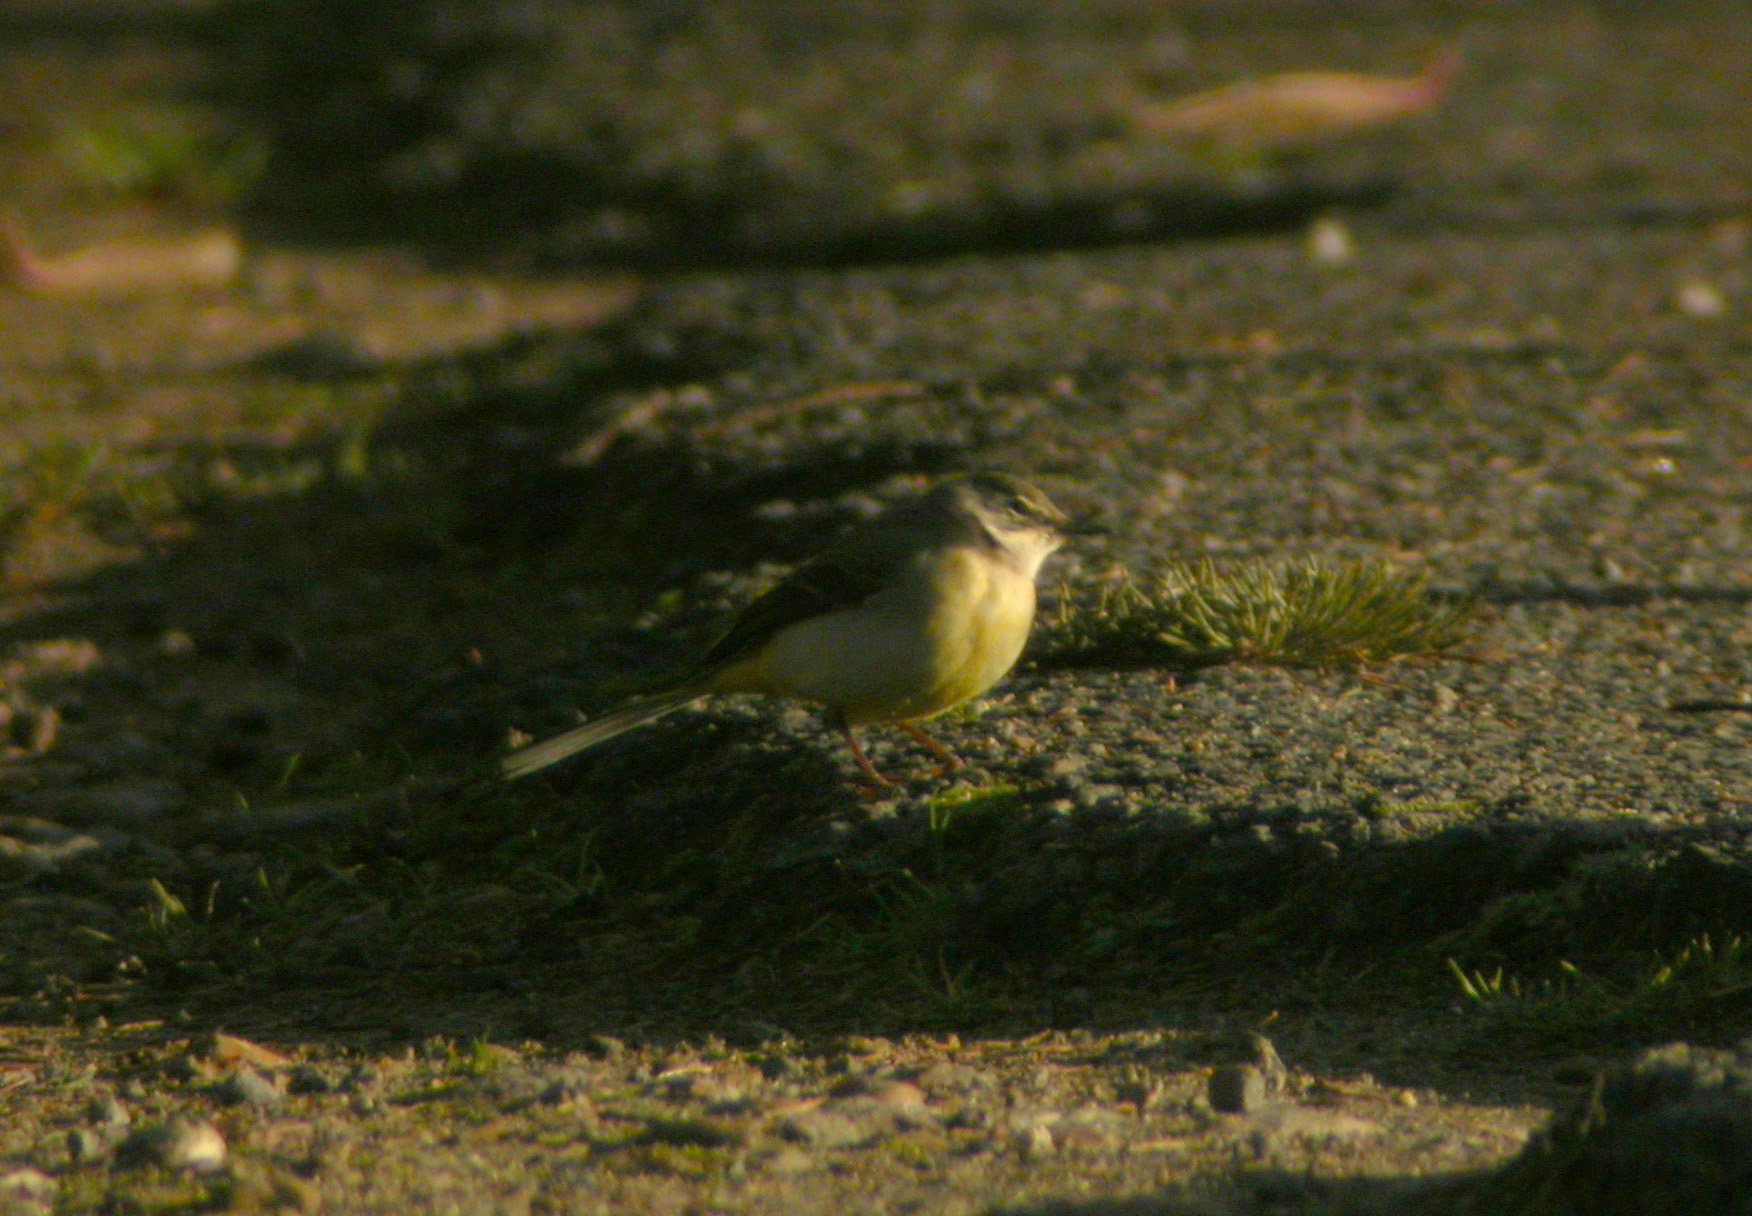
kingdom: Animalia
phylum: Chordata
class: Aves
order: Passeriformes
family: Motacillidae
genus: Motacilla
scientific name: Motacilla cinerea
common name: Grey wagtail
